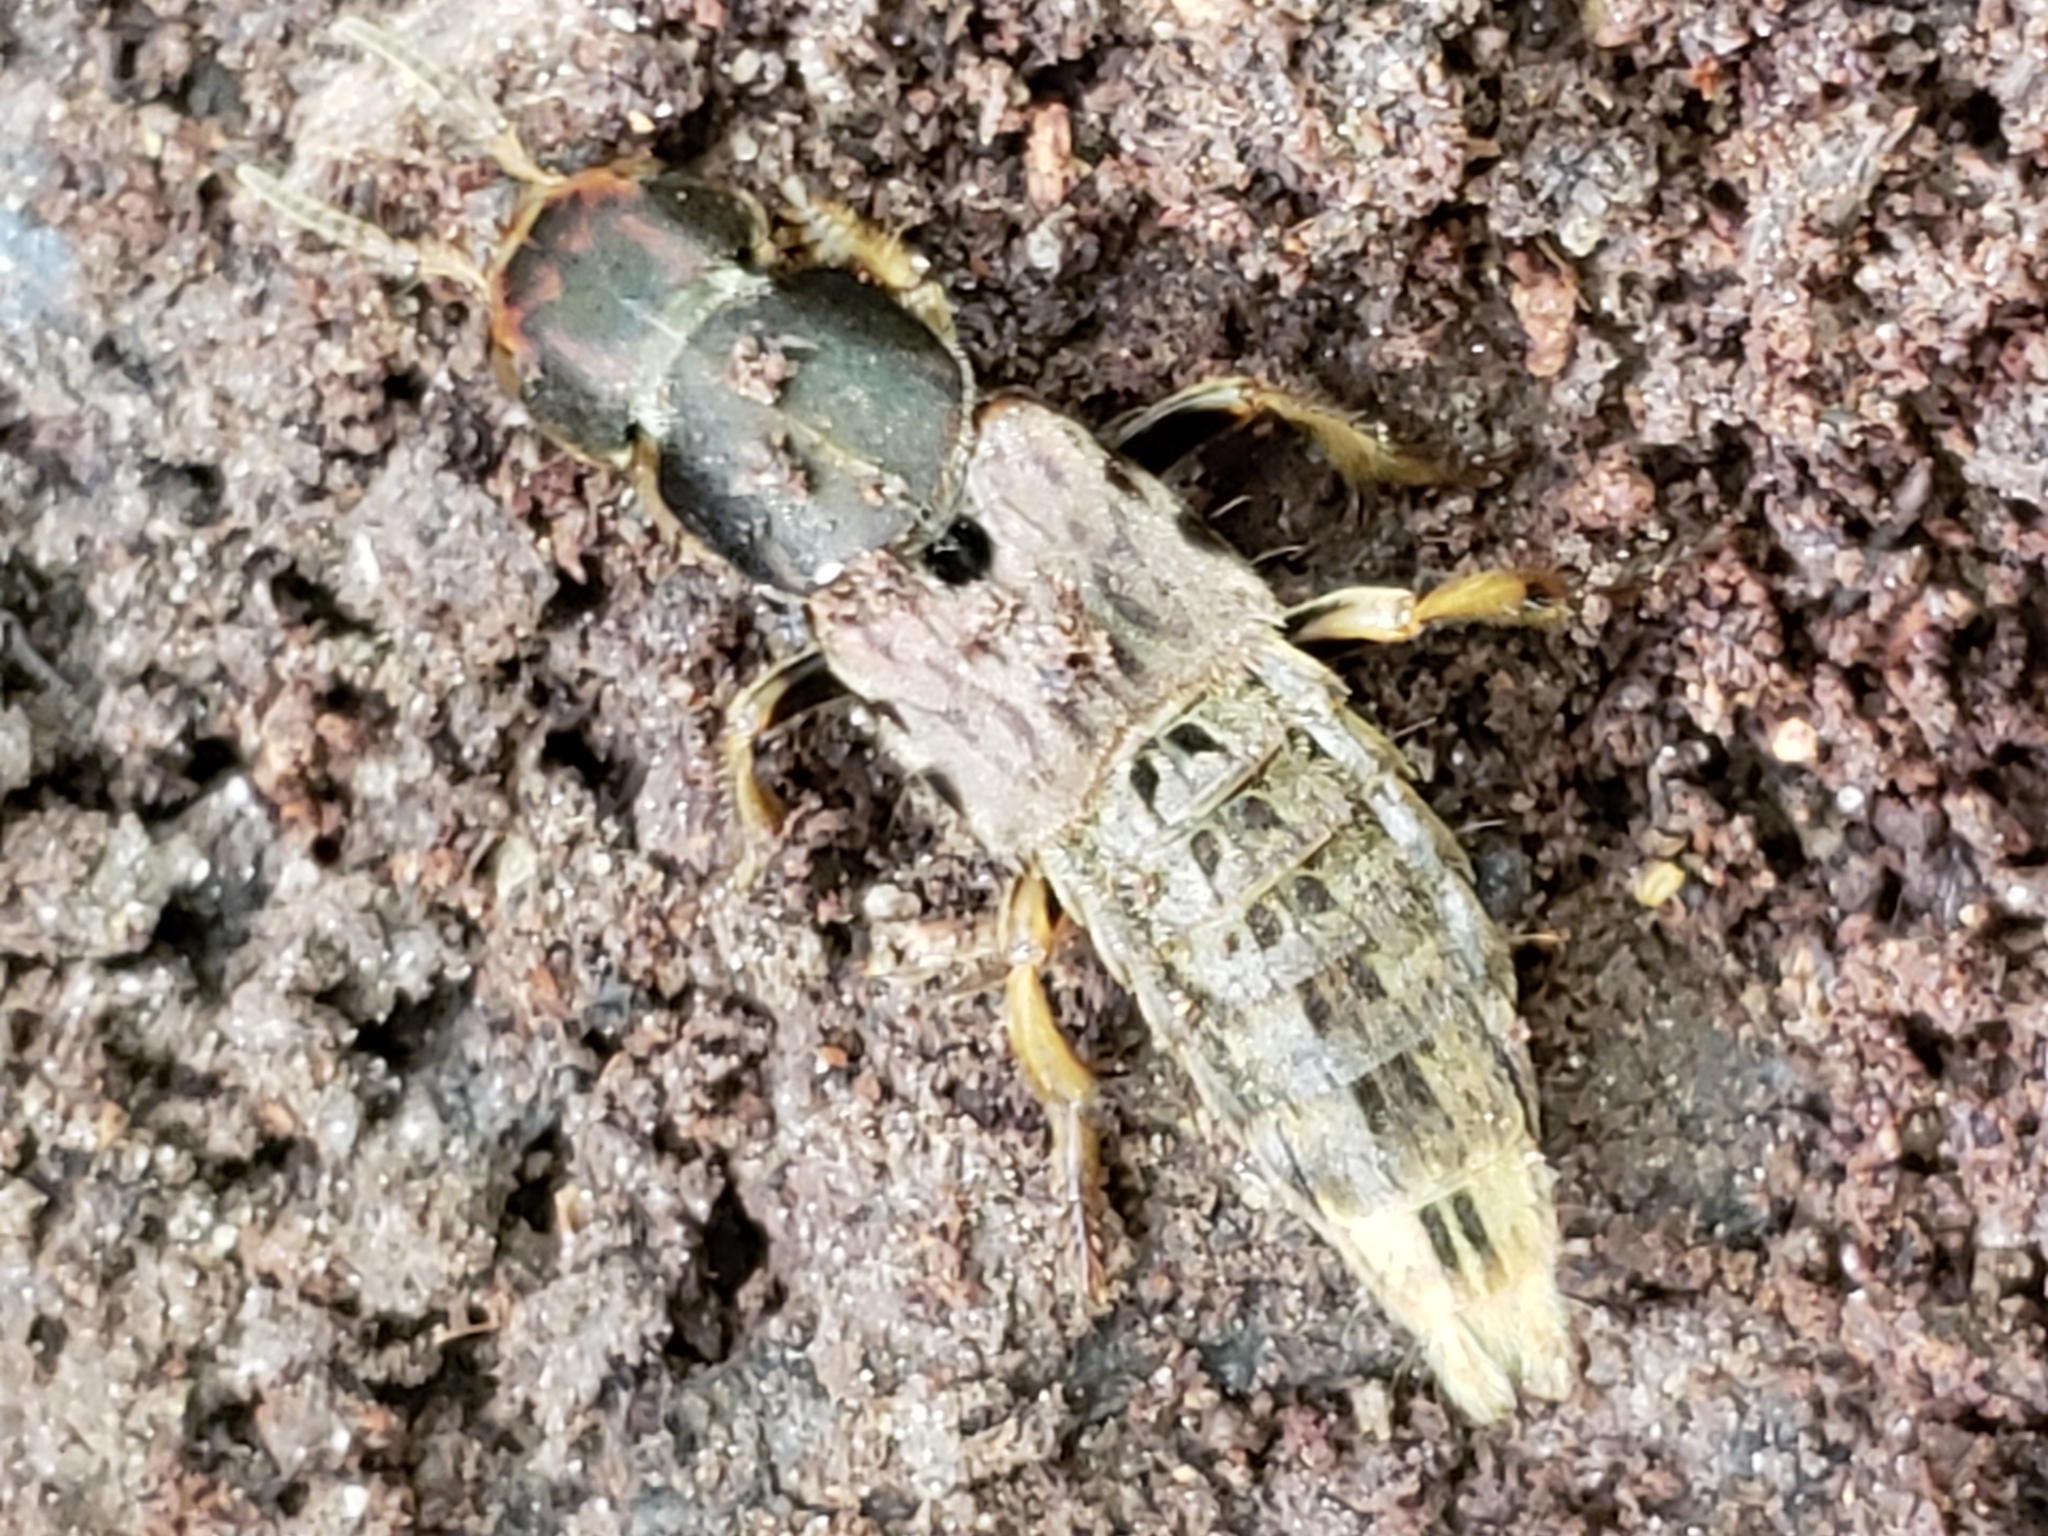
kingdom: Animalia
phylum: Arthropoda
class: Insecta
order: Coleoptera
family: Staphylinidae
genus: Platydracus
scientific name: Platydracus maculosus
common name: Brown rove beetle
